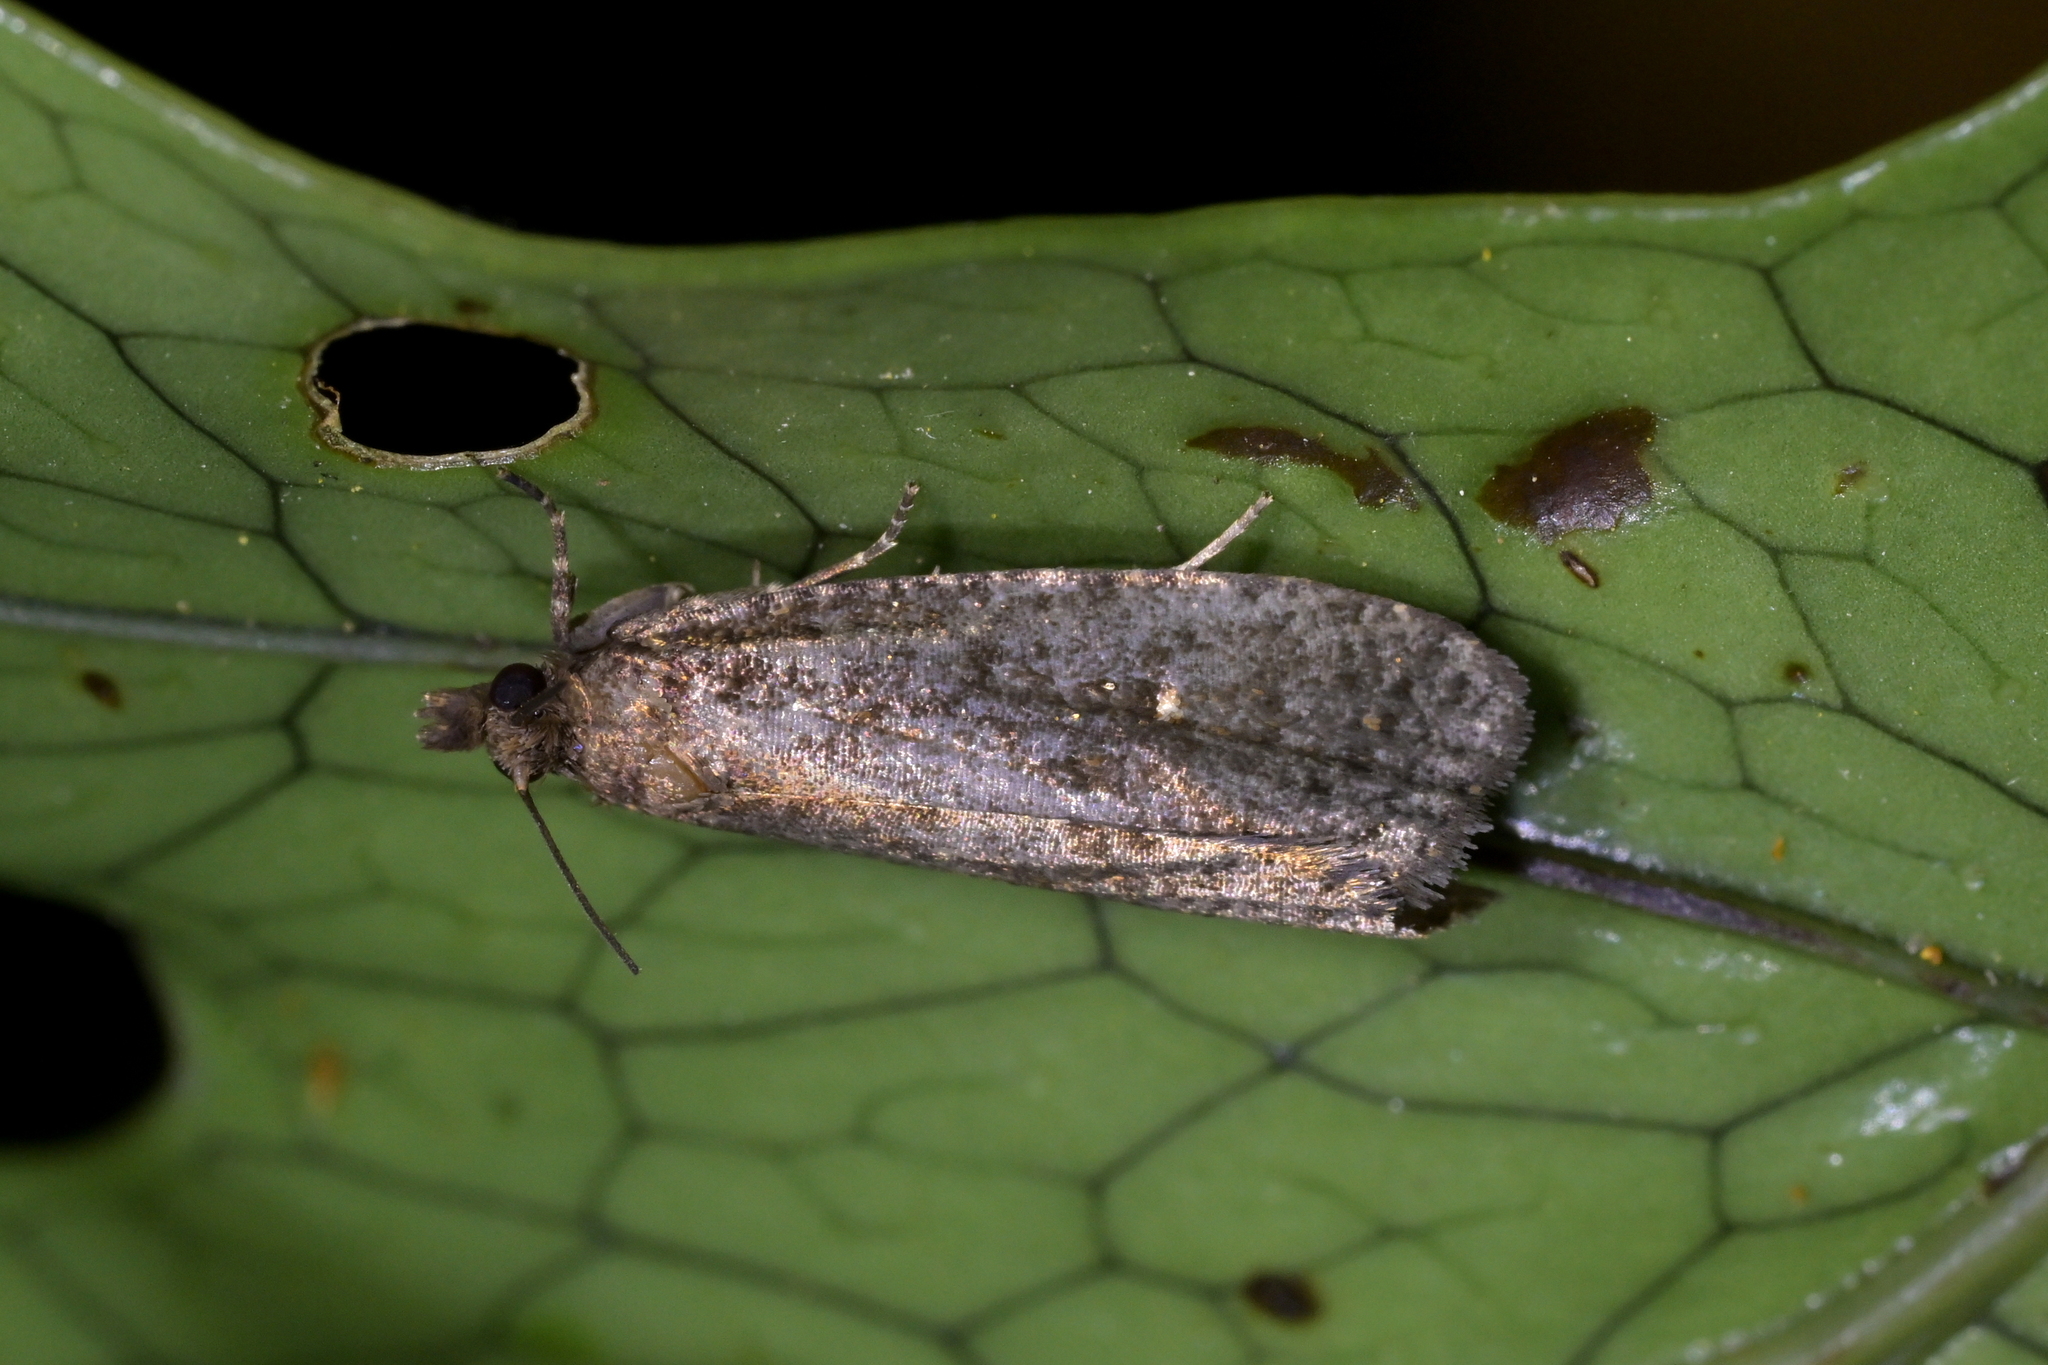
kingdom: Animalia
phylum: Arthropoda
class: Insecta
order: Lepidoptera
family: Tortricidae
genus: Cryptaspasma
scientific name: Cryptaspasma querula
